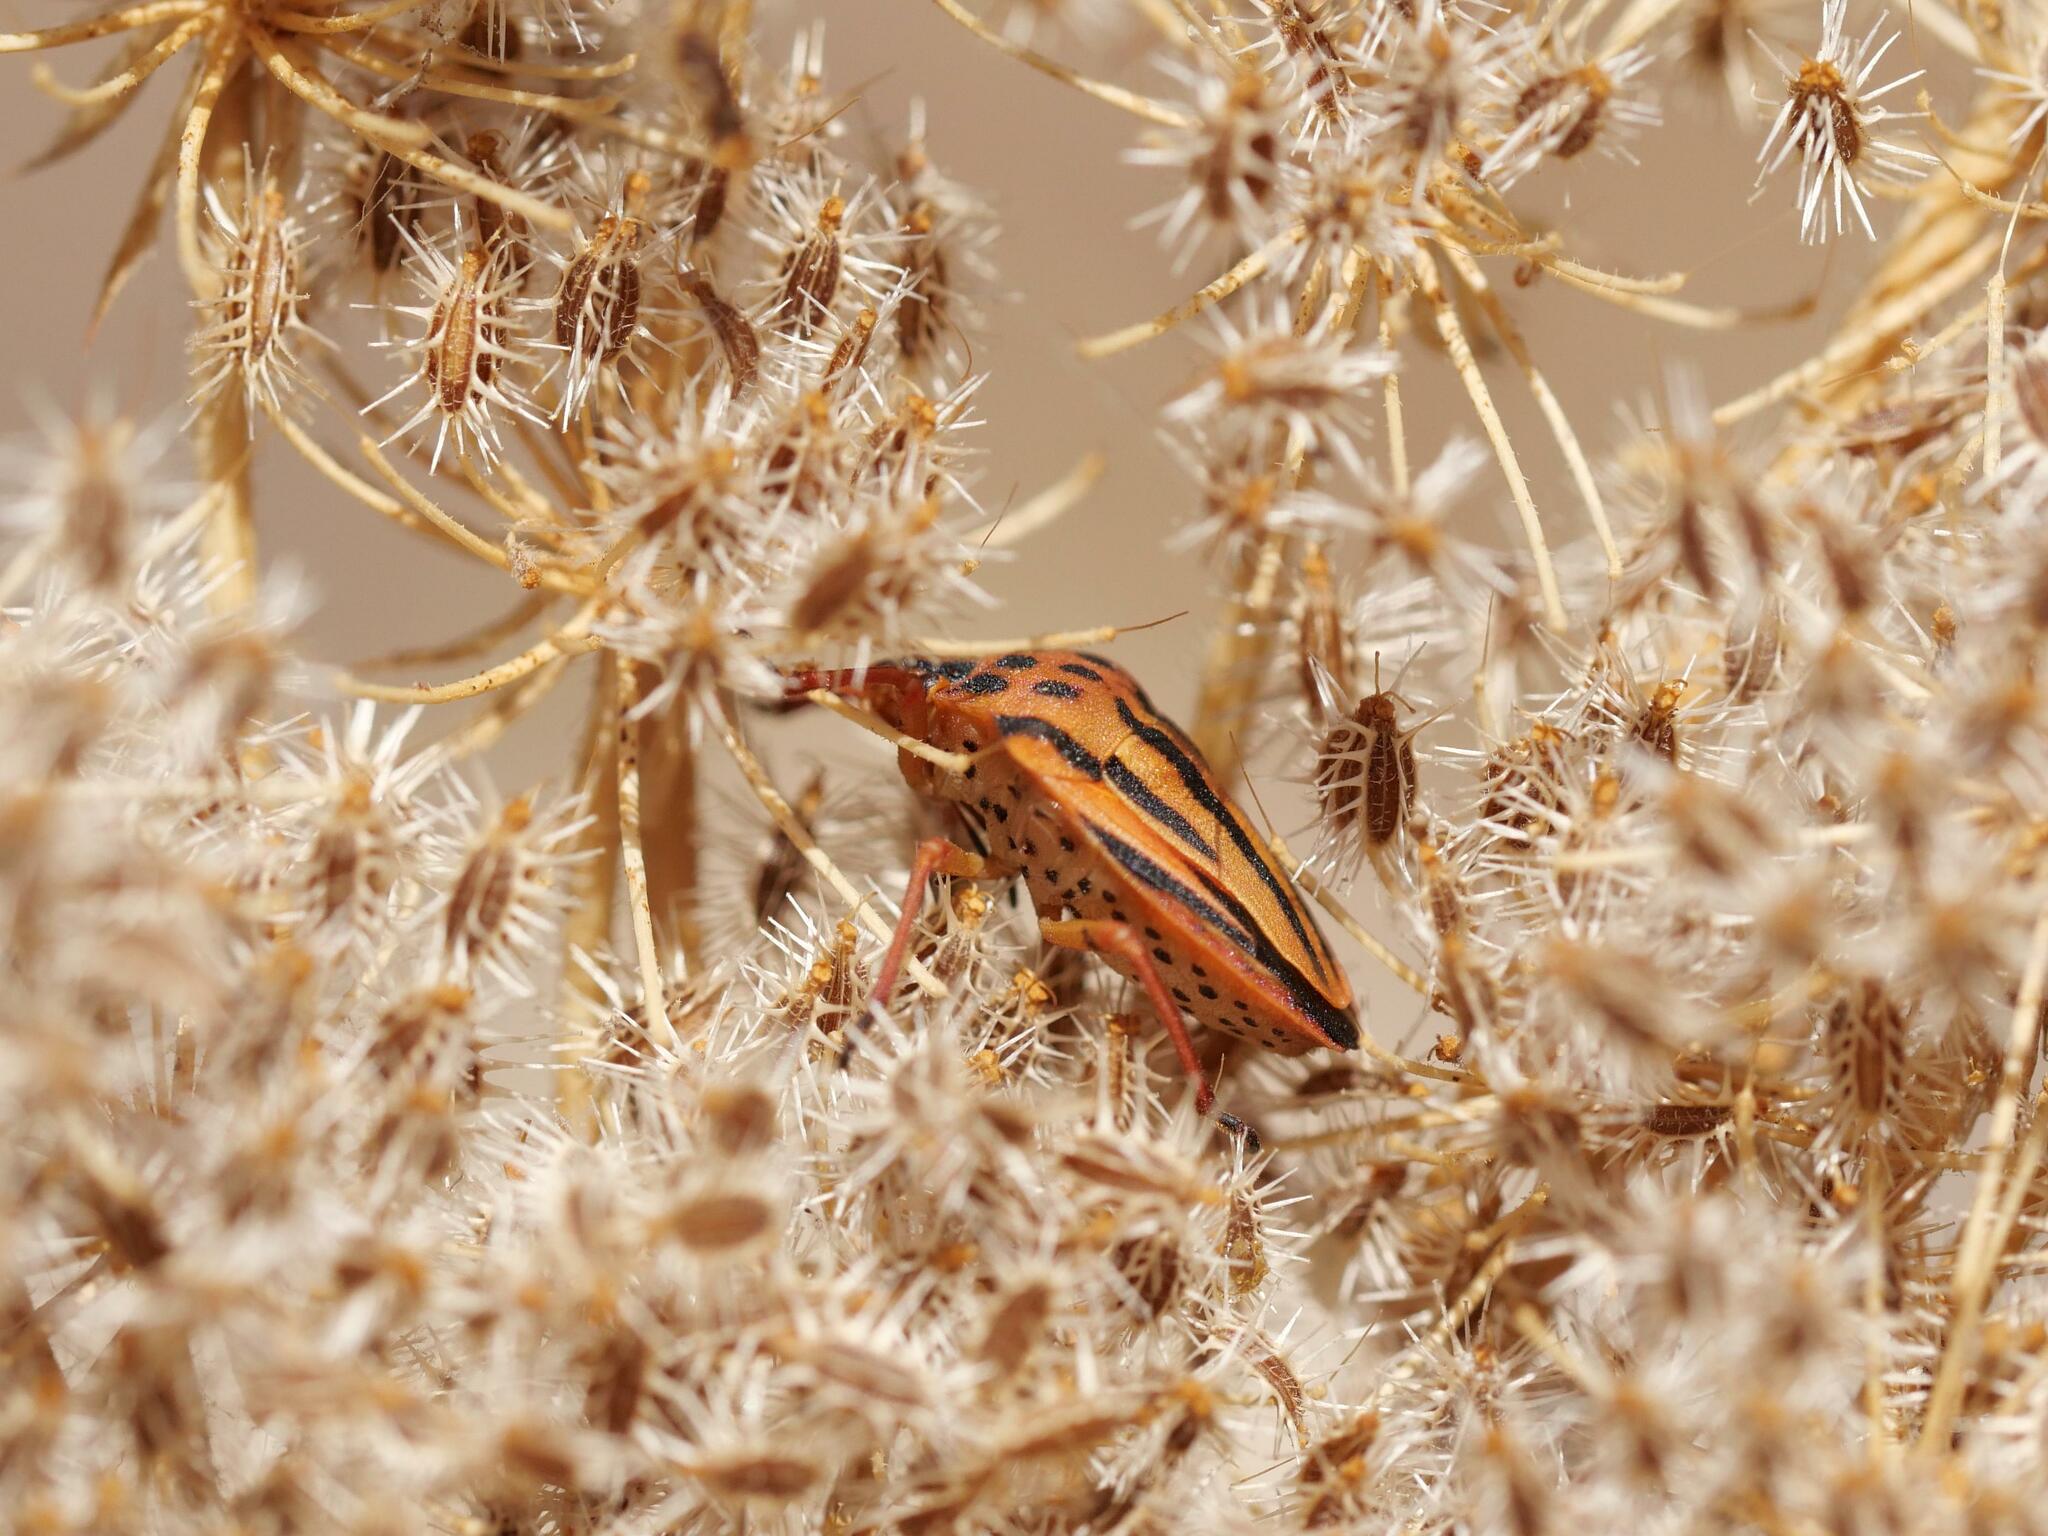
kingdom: Animalia
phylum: Arthropoda
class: Insecta
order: Hemiptera
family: Pentatomidae
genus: Graphosoma
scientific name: Graphosoma semipunctatum
